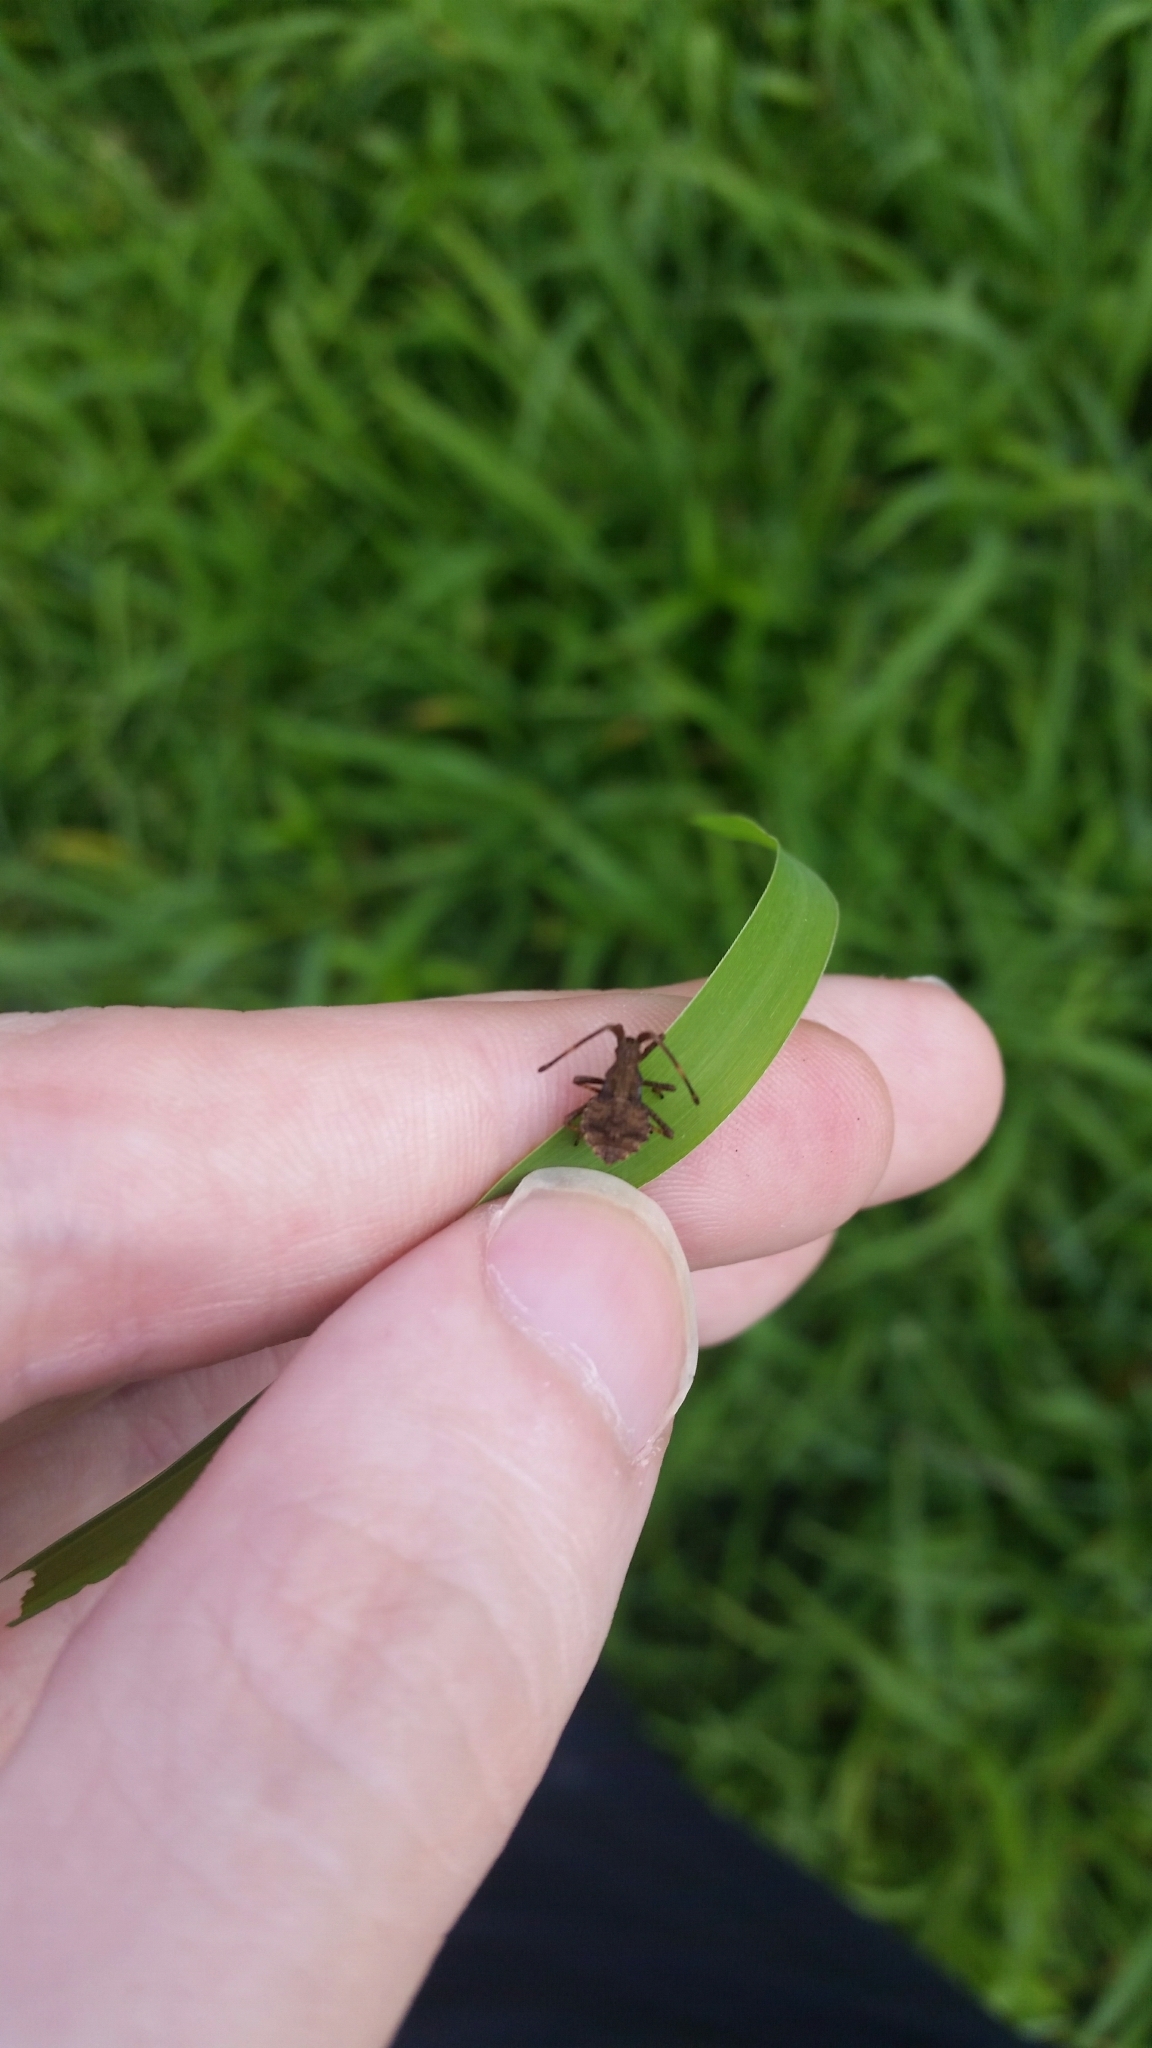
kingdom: Animalia
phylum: Arthropoda
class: Insecta
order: Hemiptera
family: Coreidae
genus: Coreus
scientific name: Coreus marginatus
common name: Dock bug
